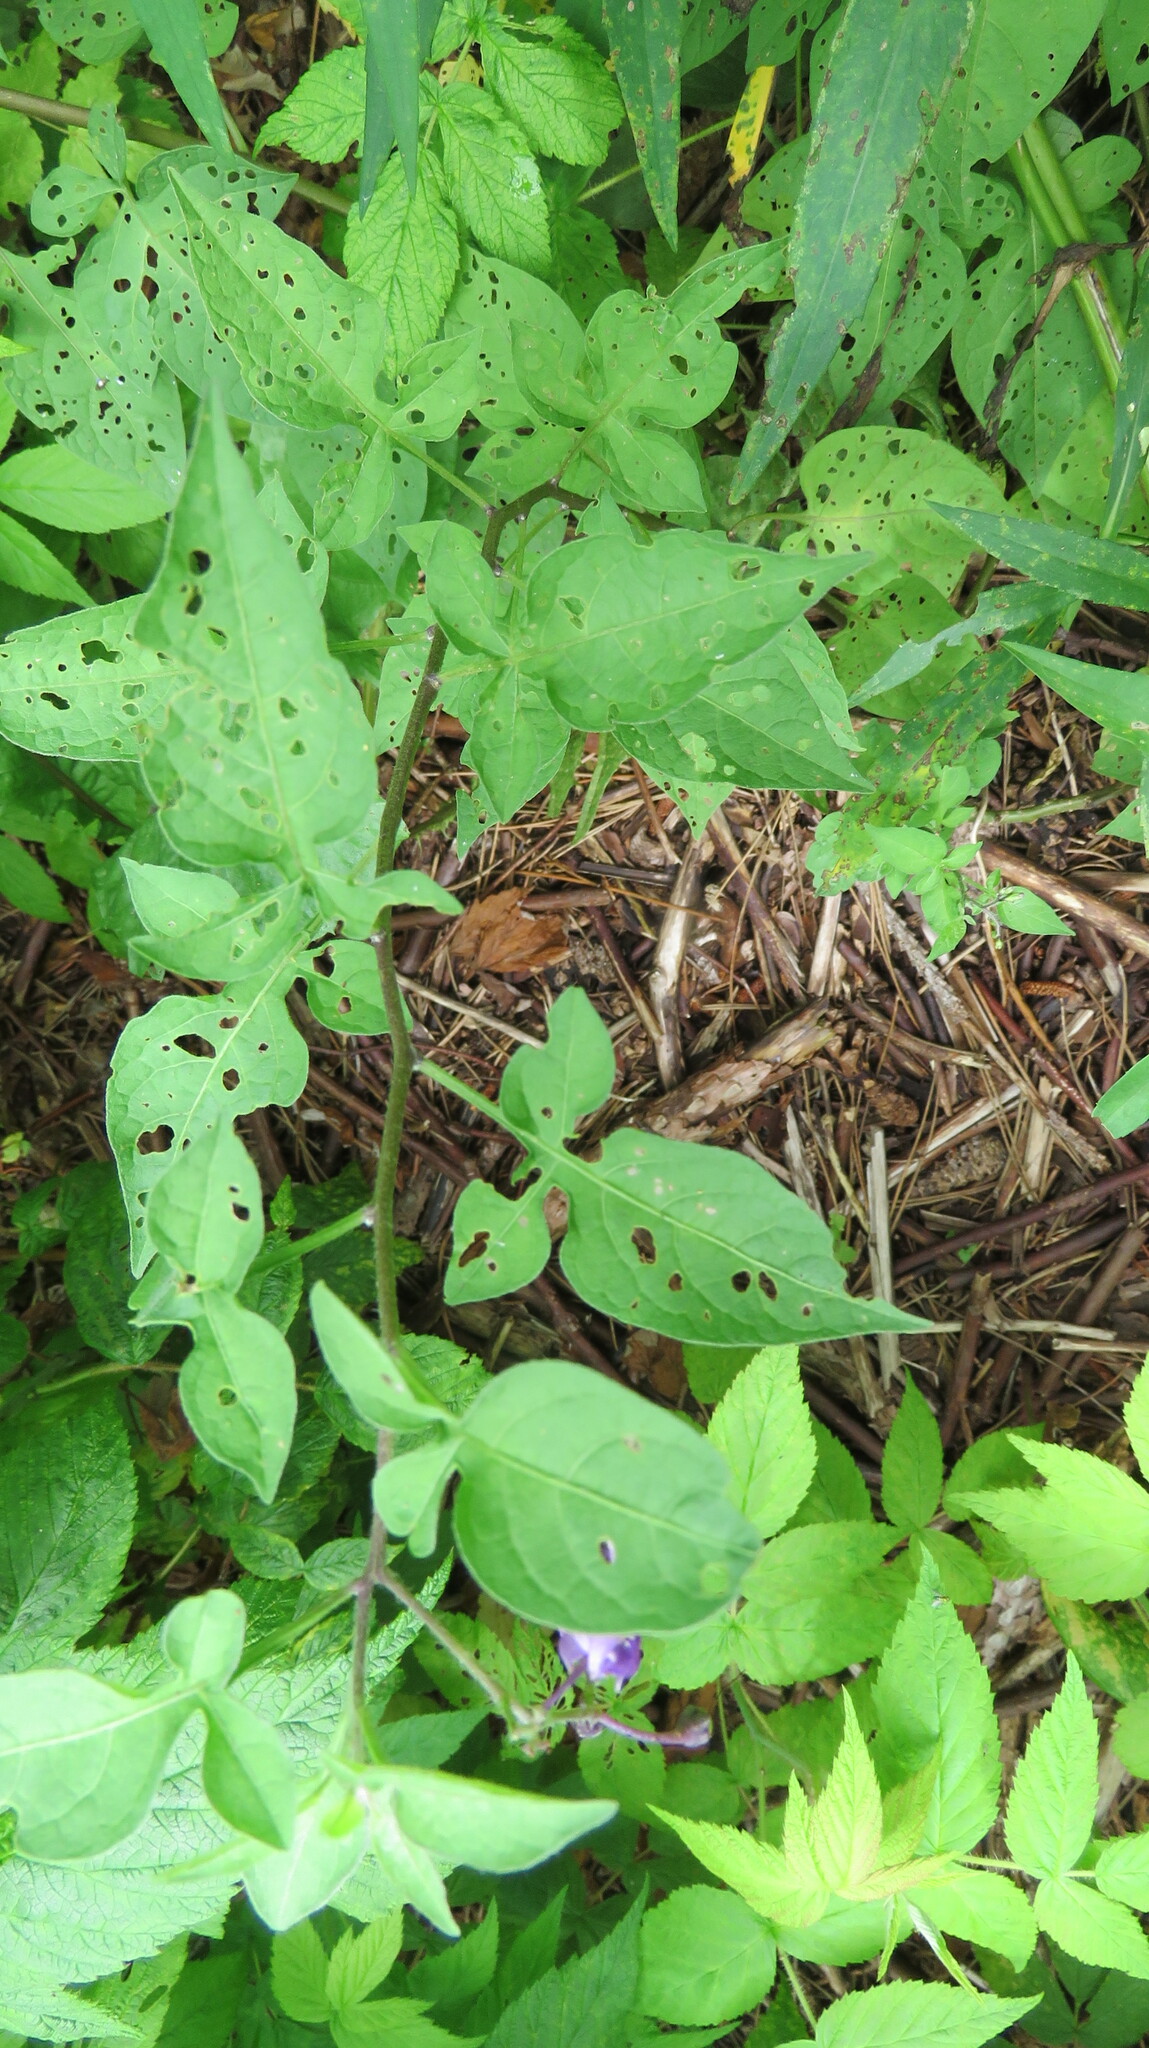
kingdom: Plantae
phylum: Tracheophyta
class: Magnoliopsida
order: Solanales
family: Solanaceae
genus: Solanum
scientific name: Solanum dulcamara
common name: Climbing nightshade
